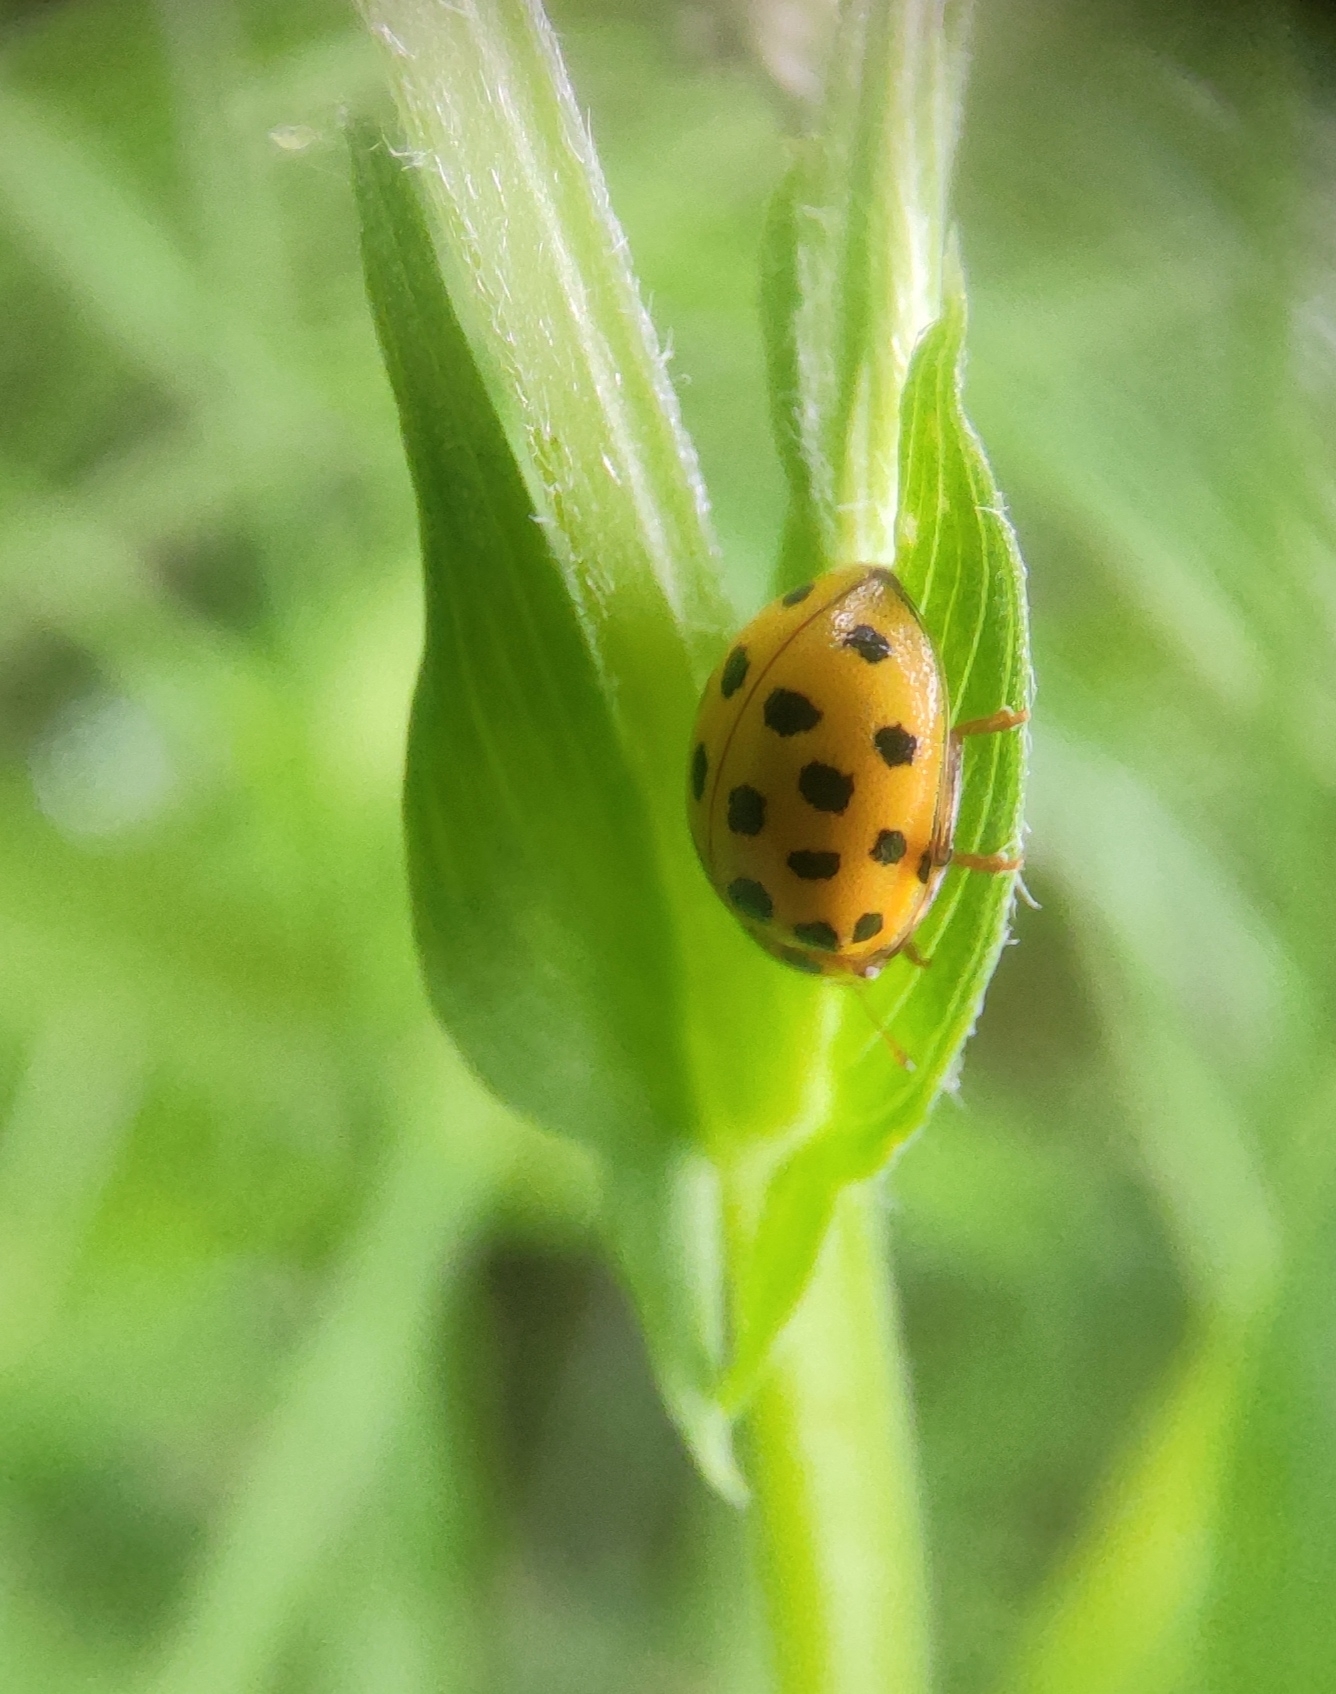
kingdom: Animalia
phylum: Arthropoda
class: Insecta
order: Coleoptera
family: Coccinellidae
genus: Psyllobora
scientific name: Psyllobora vigintiduopunctata
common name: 22-spot ladybird
